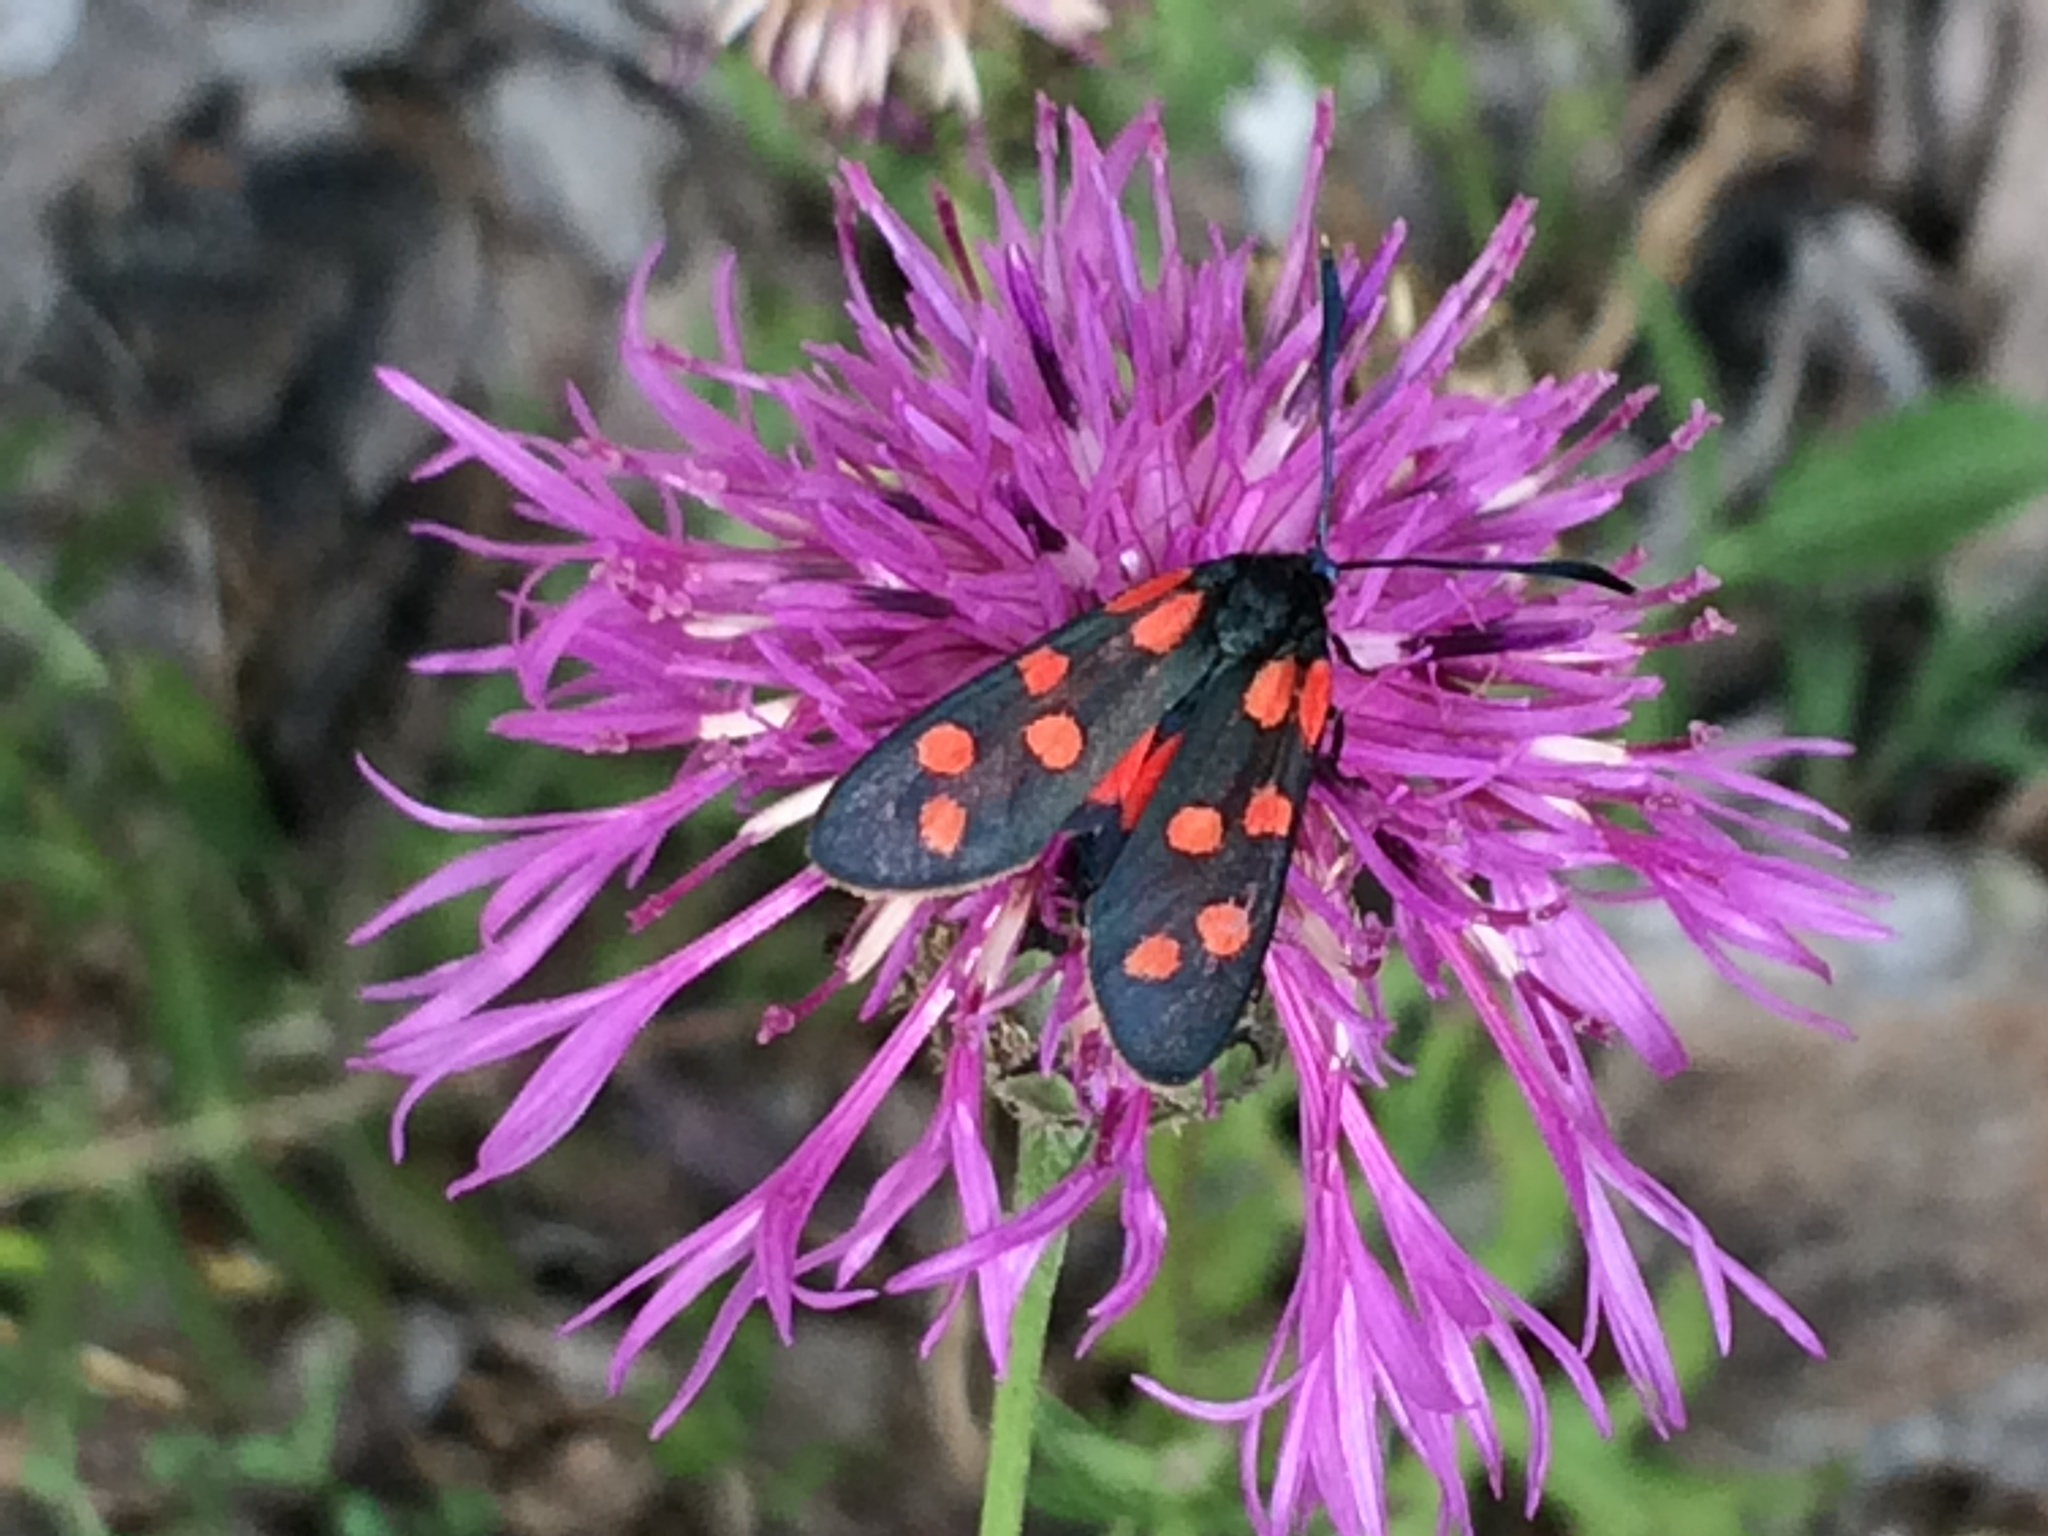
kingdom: Animalia
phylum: Arthropoda
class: Insecta
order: Lepidoptera
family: Zygaenidae
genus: Zygaena
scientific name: Zygaena transalpina
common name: Southern six spot burnet
